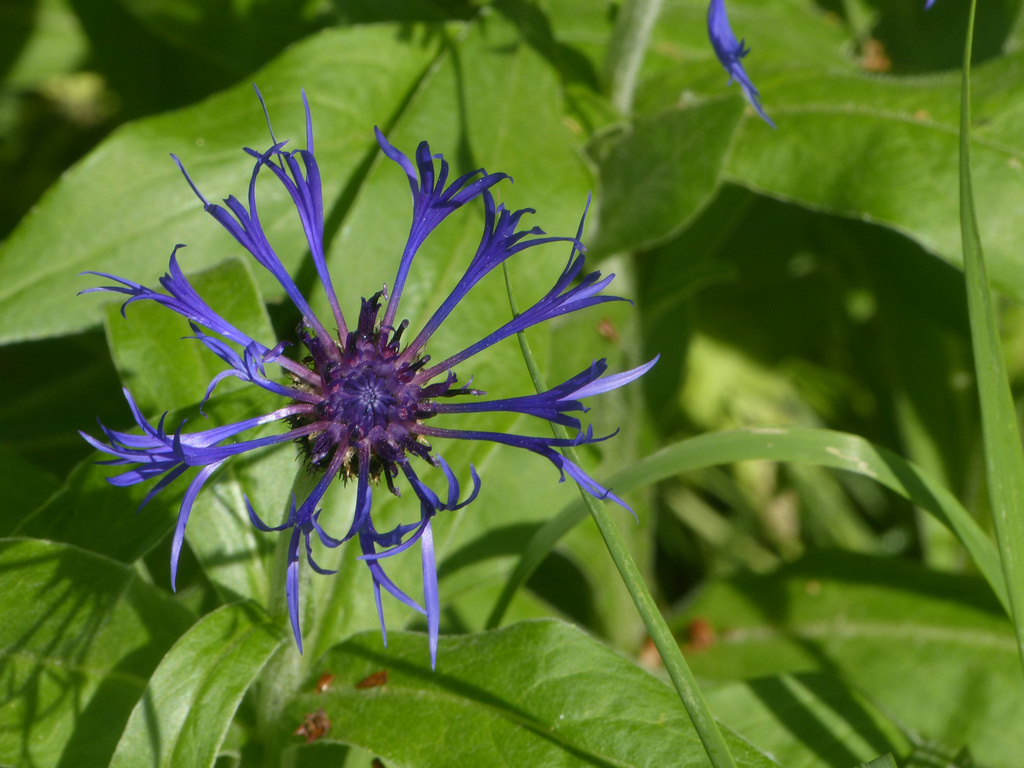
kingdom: Plantae
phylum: Tracheophyta
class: Magnoliopsida
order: Asterales
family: Asteraceae
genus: Centaurea
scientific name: Centaurea montana
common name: Perennial cornflower
